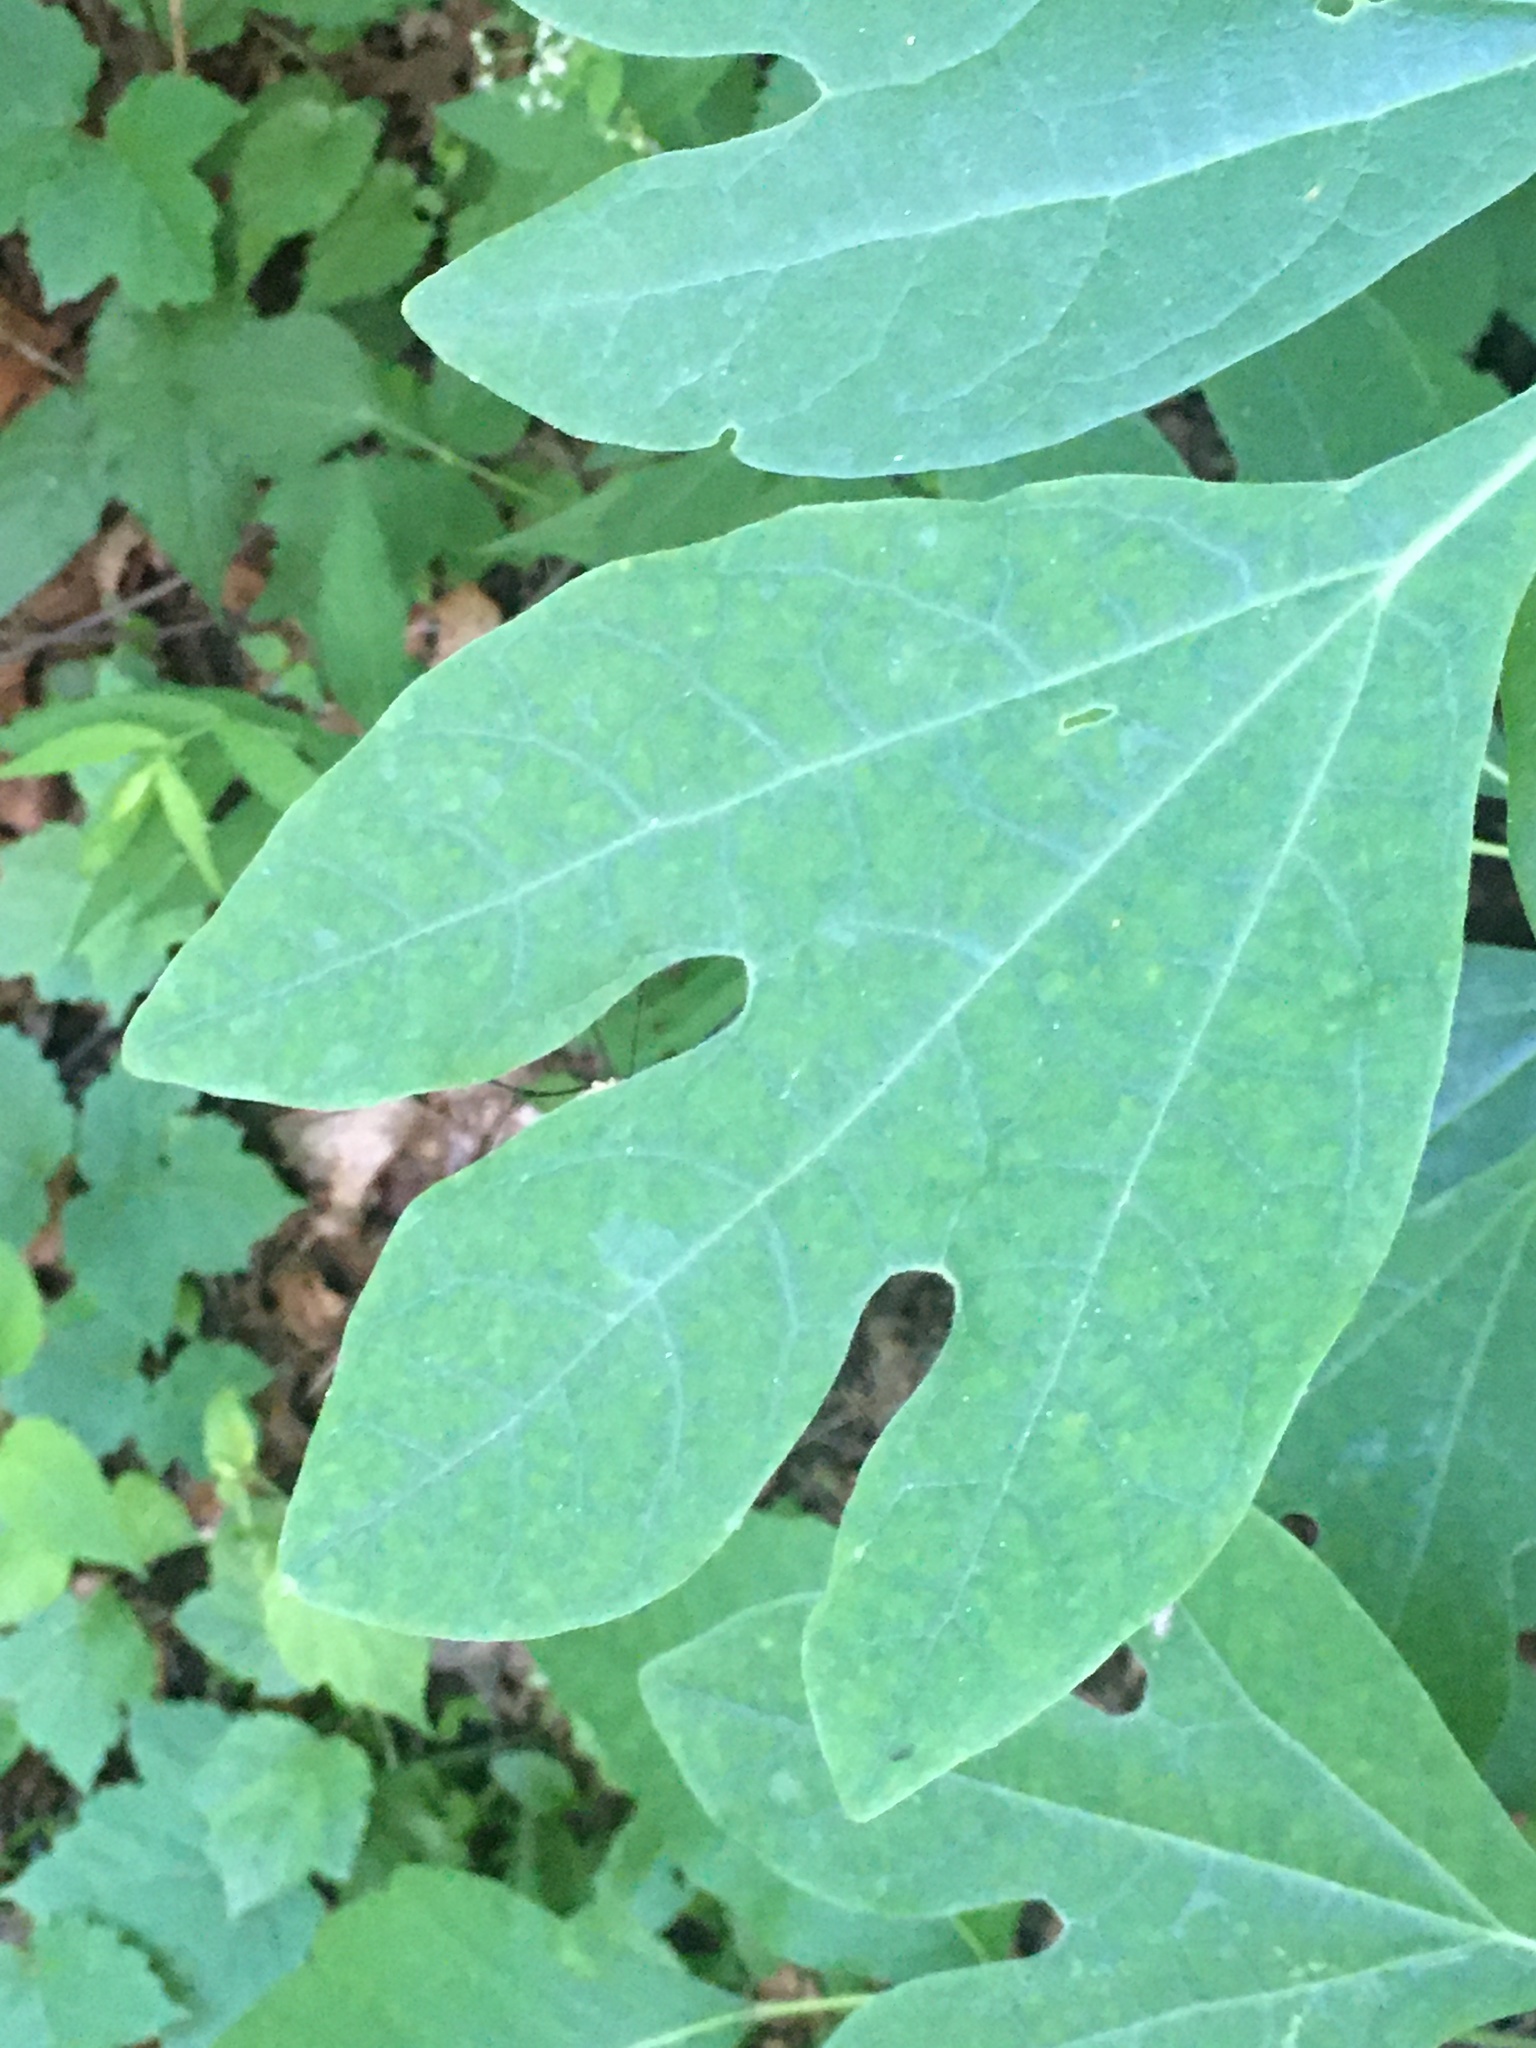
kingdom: Plantae
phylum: Tracheophyta
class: Magnoliopsida
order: Laurales
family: Lauraceae
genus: Sassafras
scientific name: Sassafras albidum
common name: Sassafras
